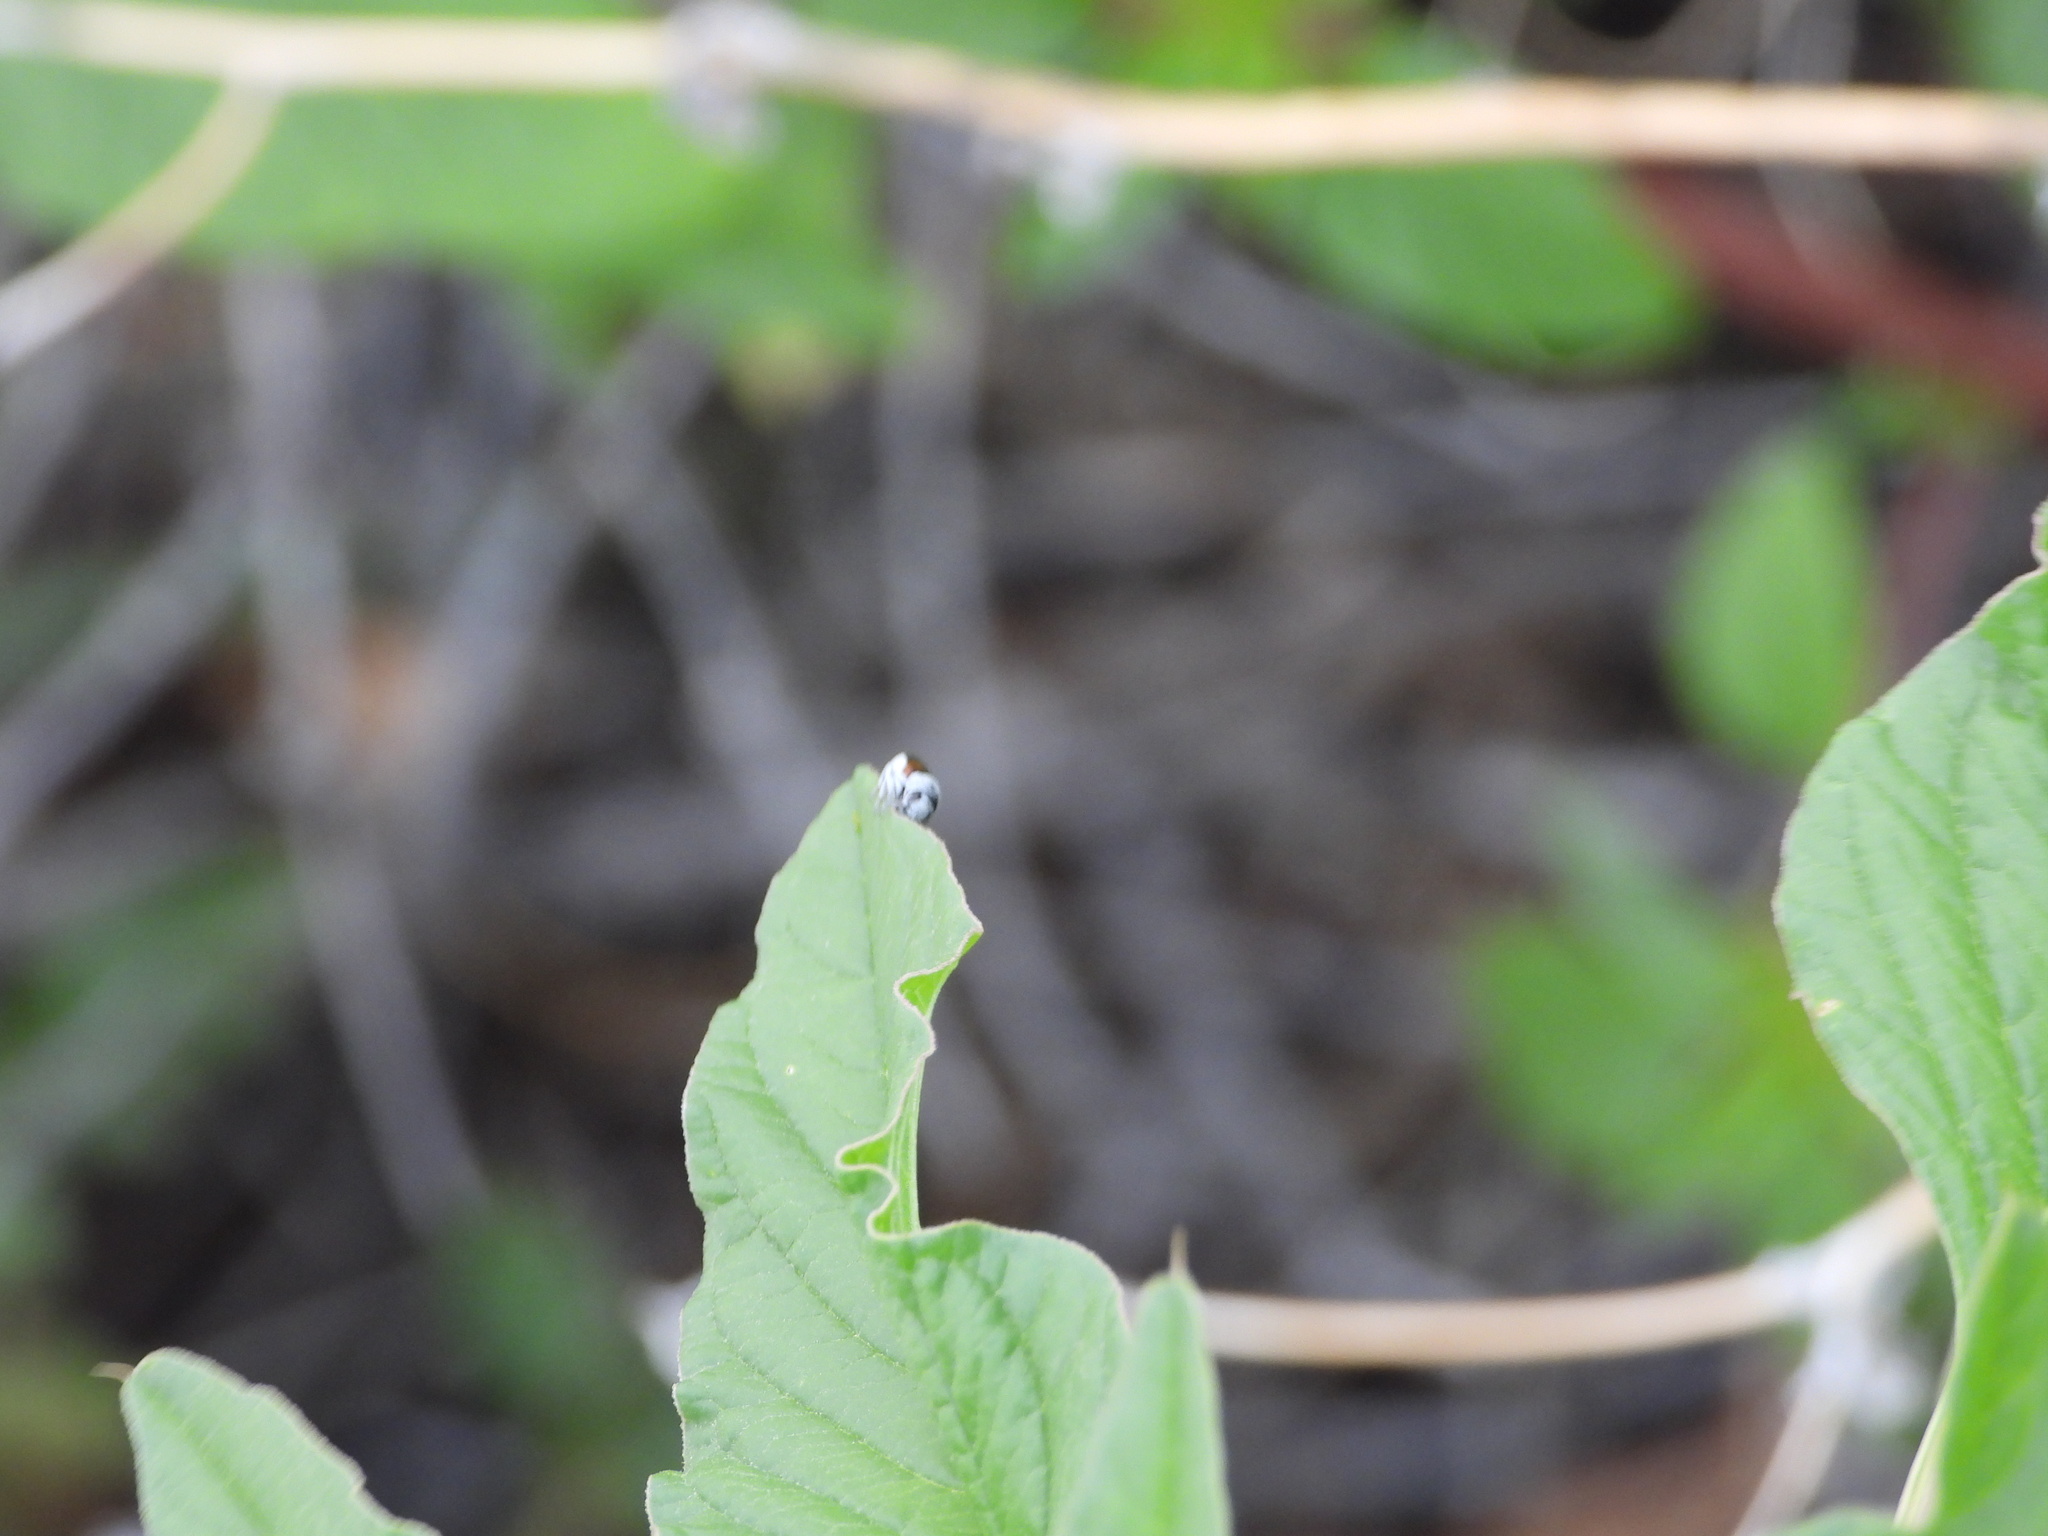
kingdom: Animalia
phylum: Arthropoda
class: Insecta
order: Coleoptera
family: Chrysomelidae
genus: Coleorozena
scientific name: Coleorozena pilatei
